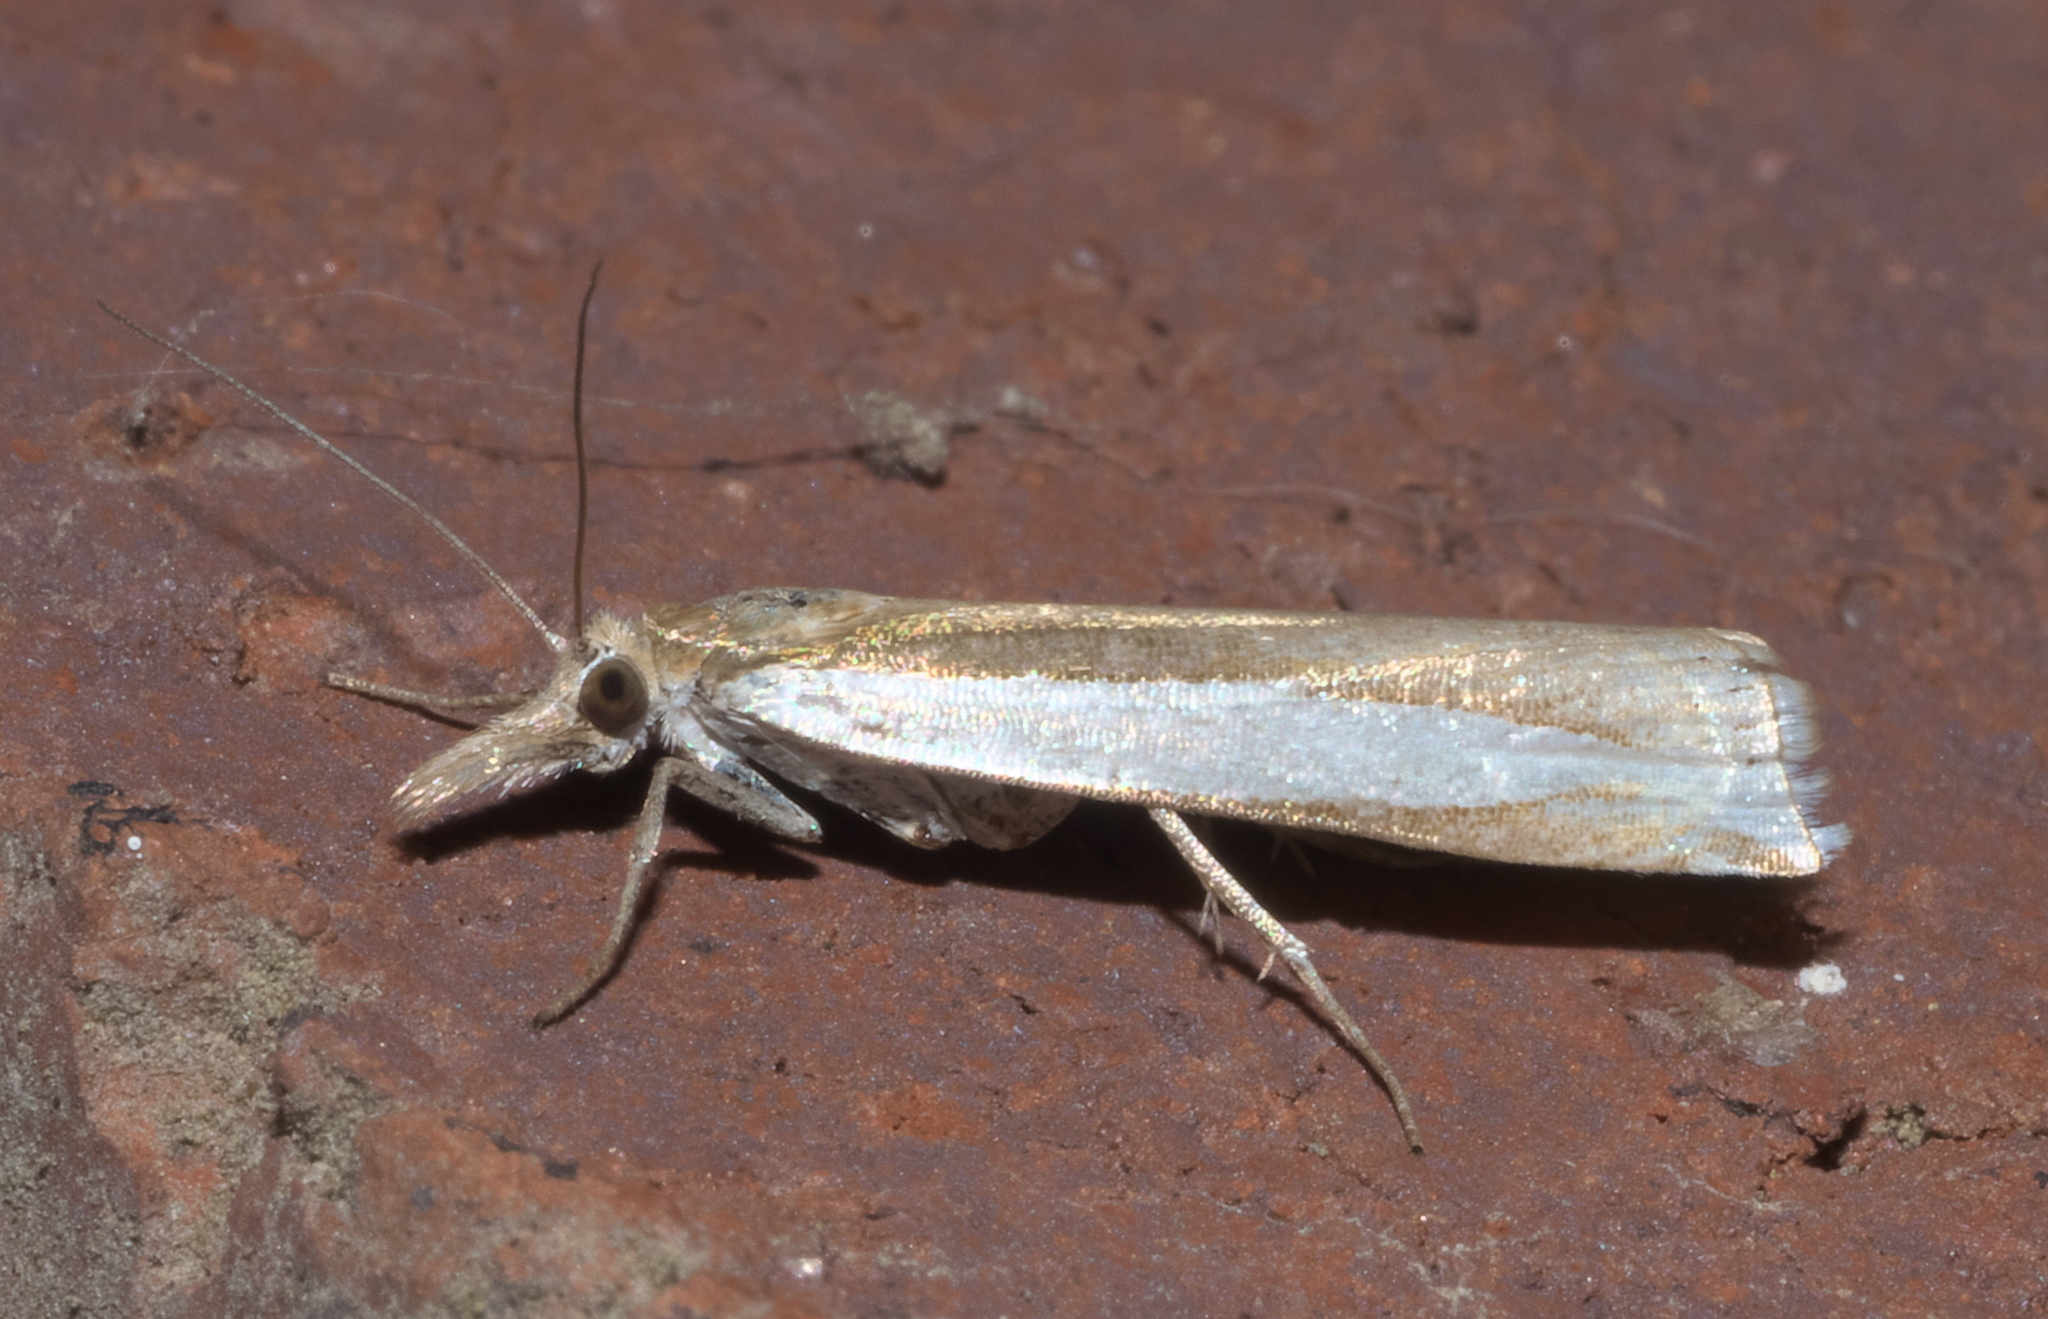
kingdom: Animalia
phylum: Arthropoda
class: Insecta
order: Lepidoptera
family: Crambidae
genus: Crambus
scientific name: Crambus leachellus
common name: Leach's grass-veneer
